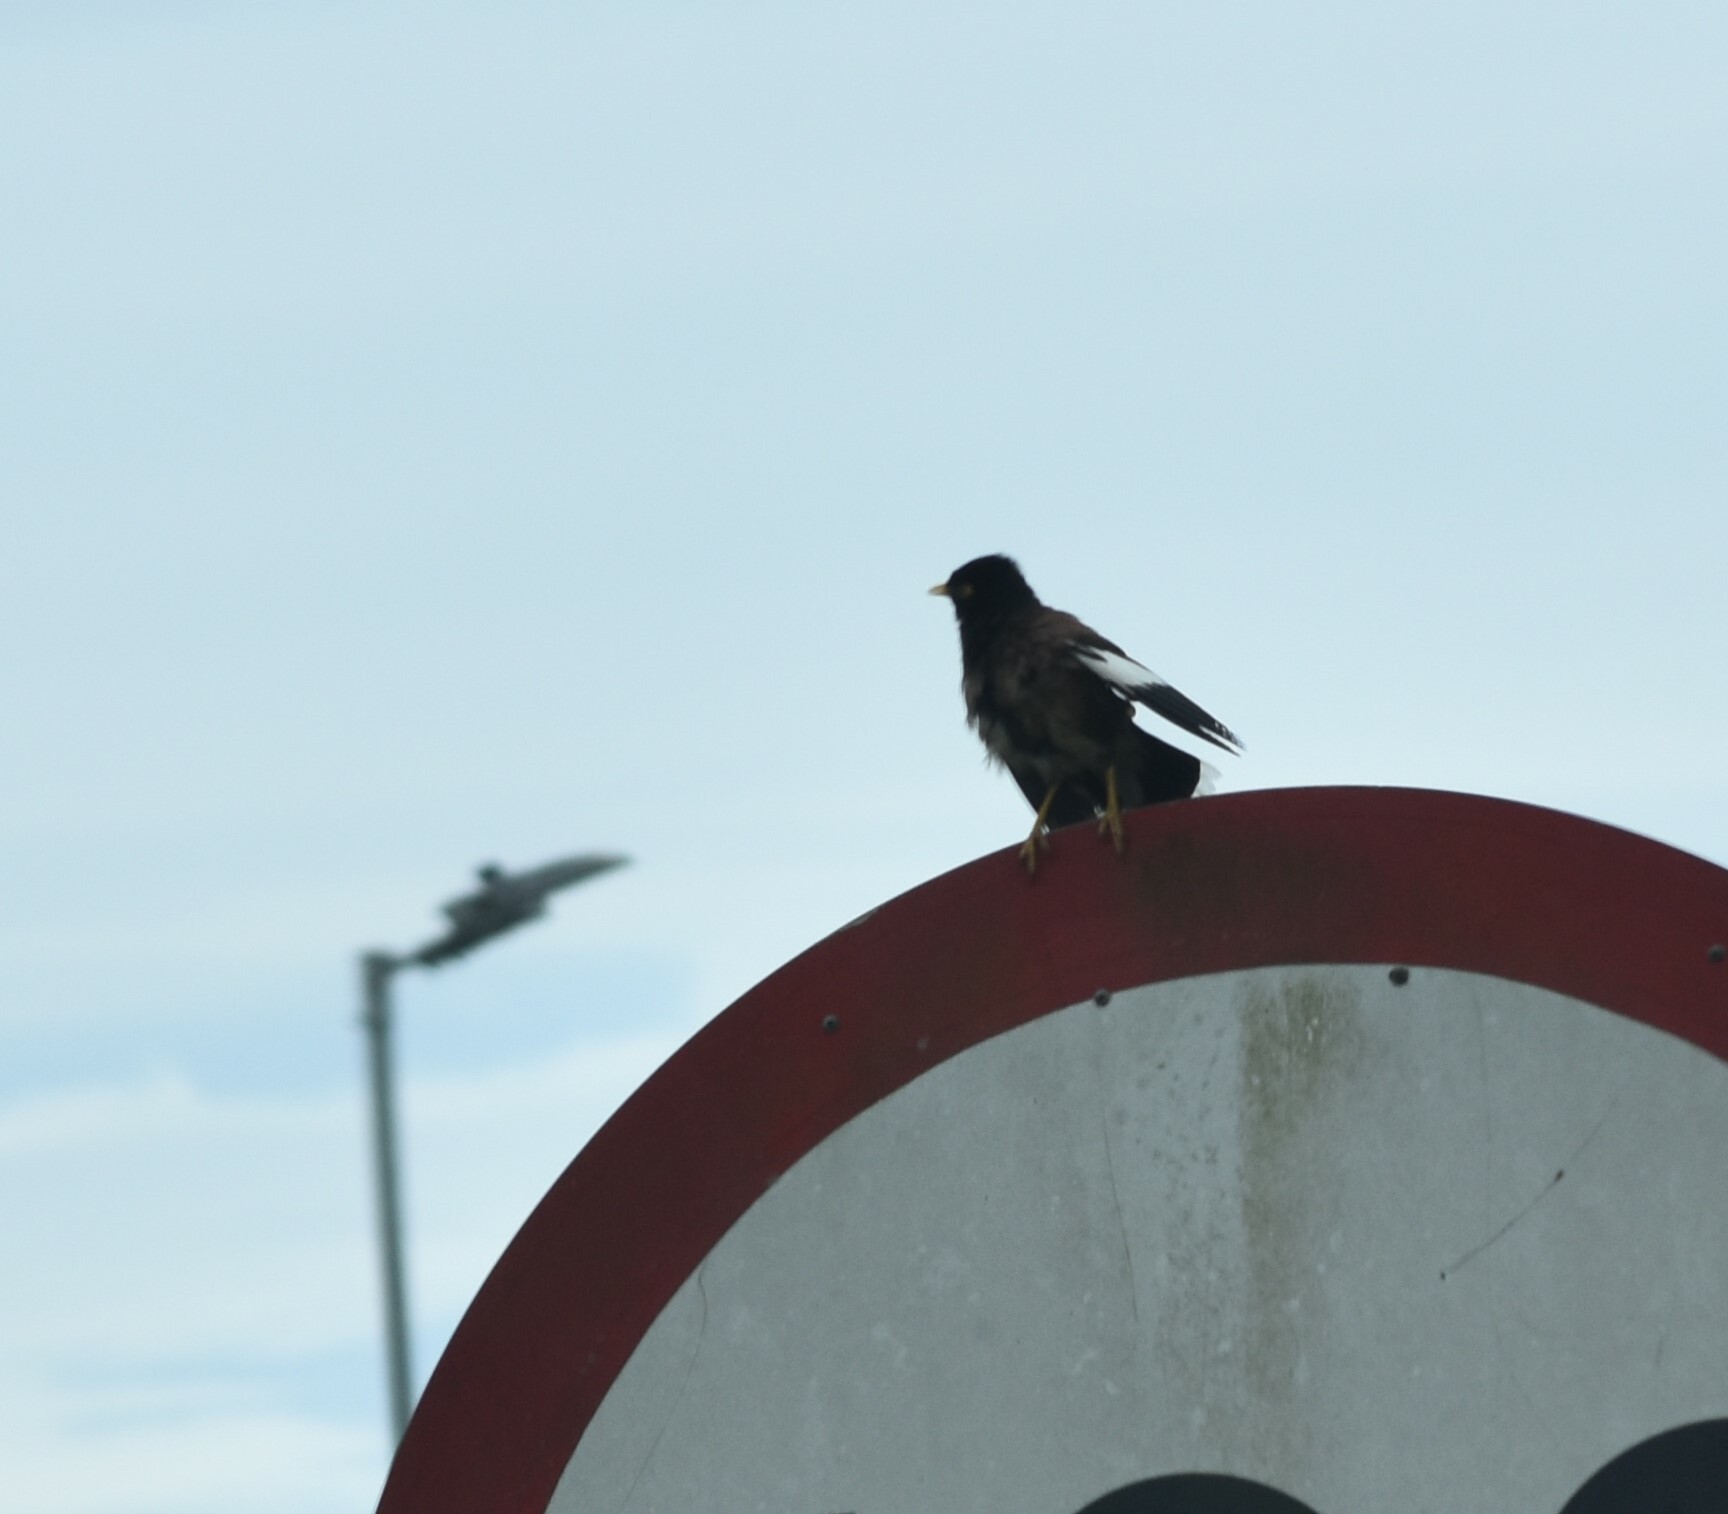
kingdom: Animalia
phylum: Chordata
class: Aves
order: Passeriformes
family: Sturnidae
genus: Acridotheres
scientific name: Acridotheres tristis
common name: Common myna
